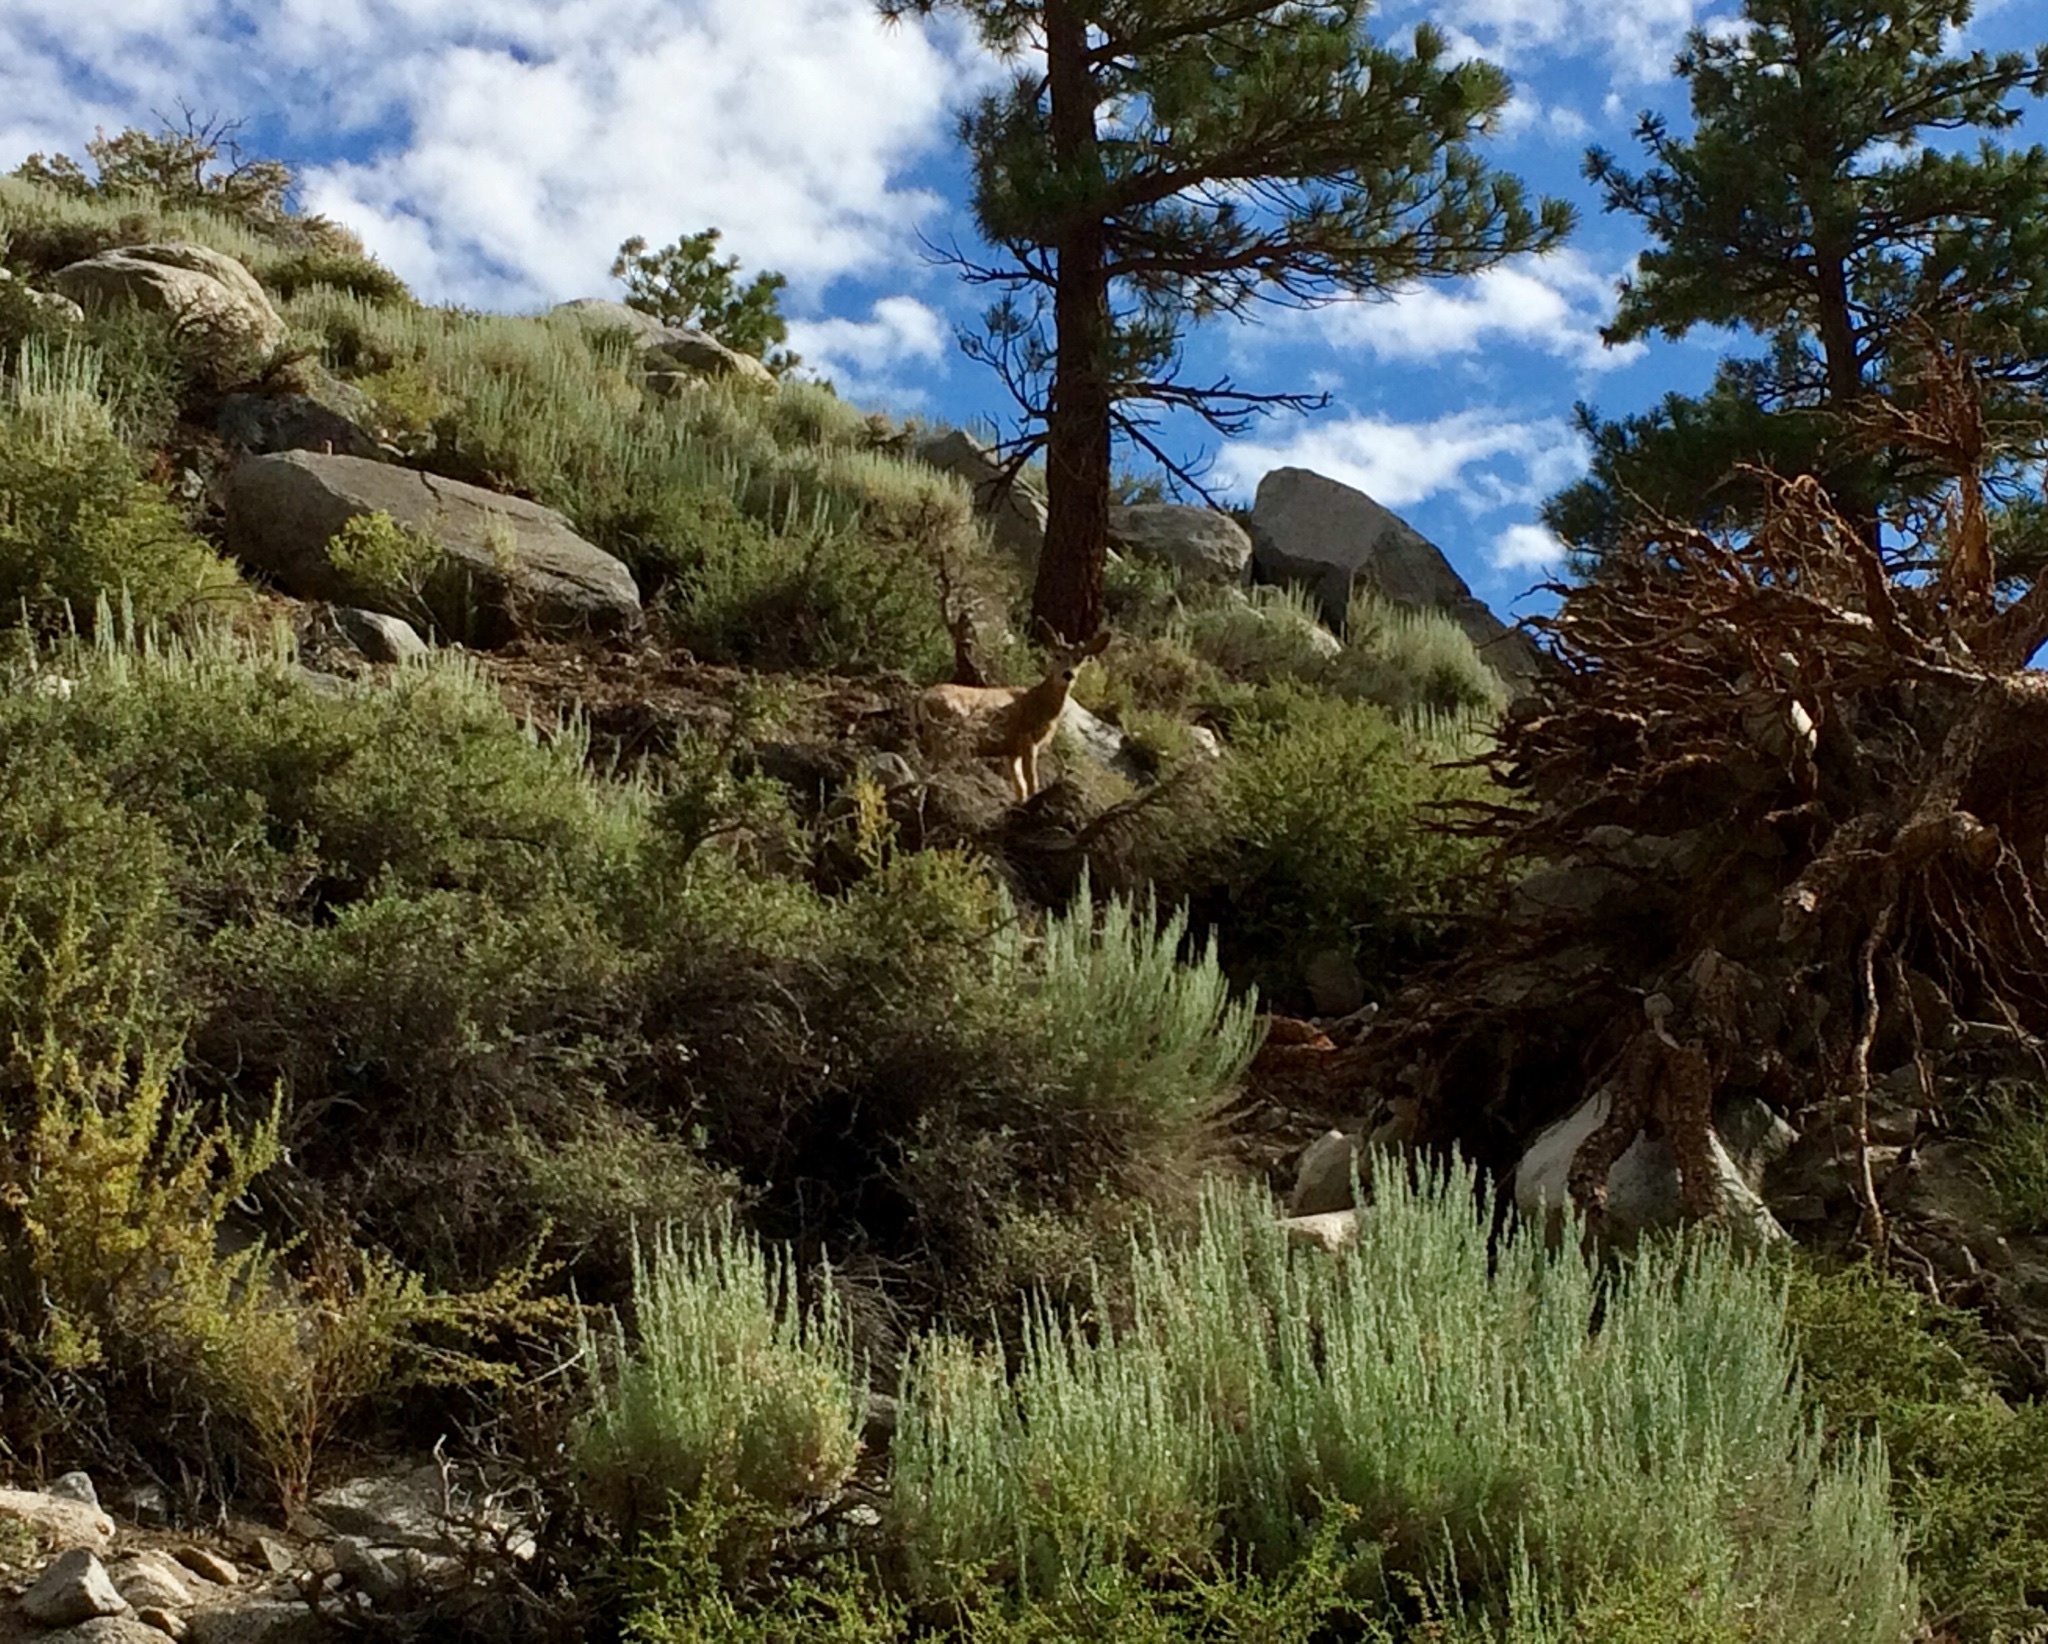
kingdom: Animalia
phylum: Chordata
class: Mammalia
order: Artiodactyla
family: Cervidae
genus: Odocoileus
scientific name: Odocoileus hemionus
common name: Mule deer
